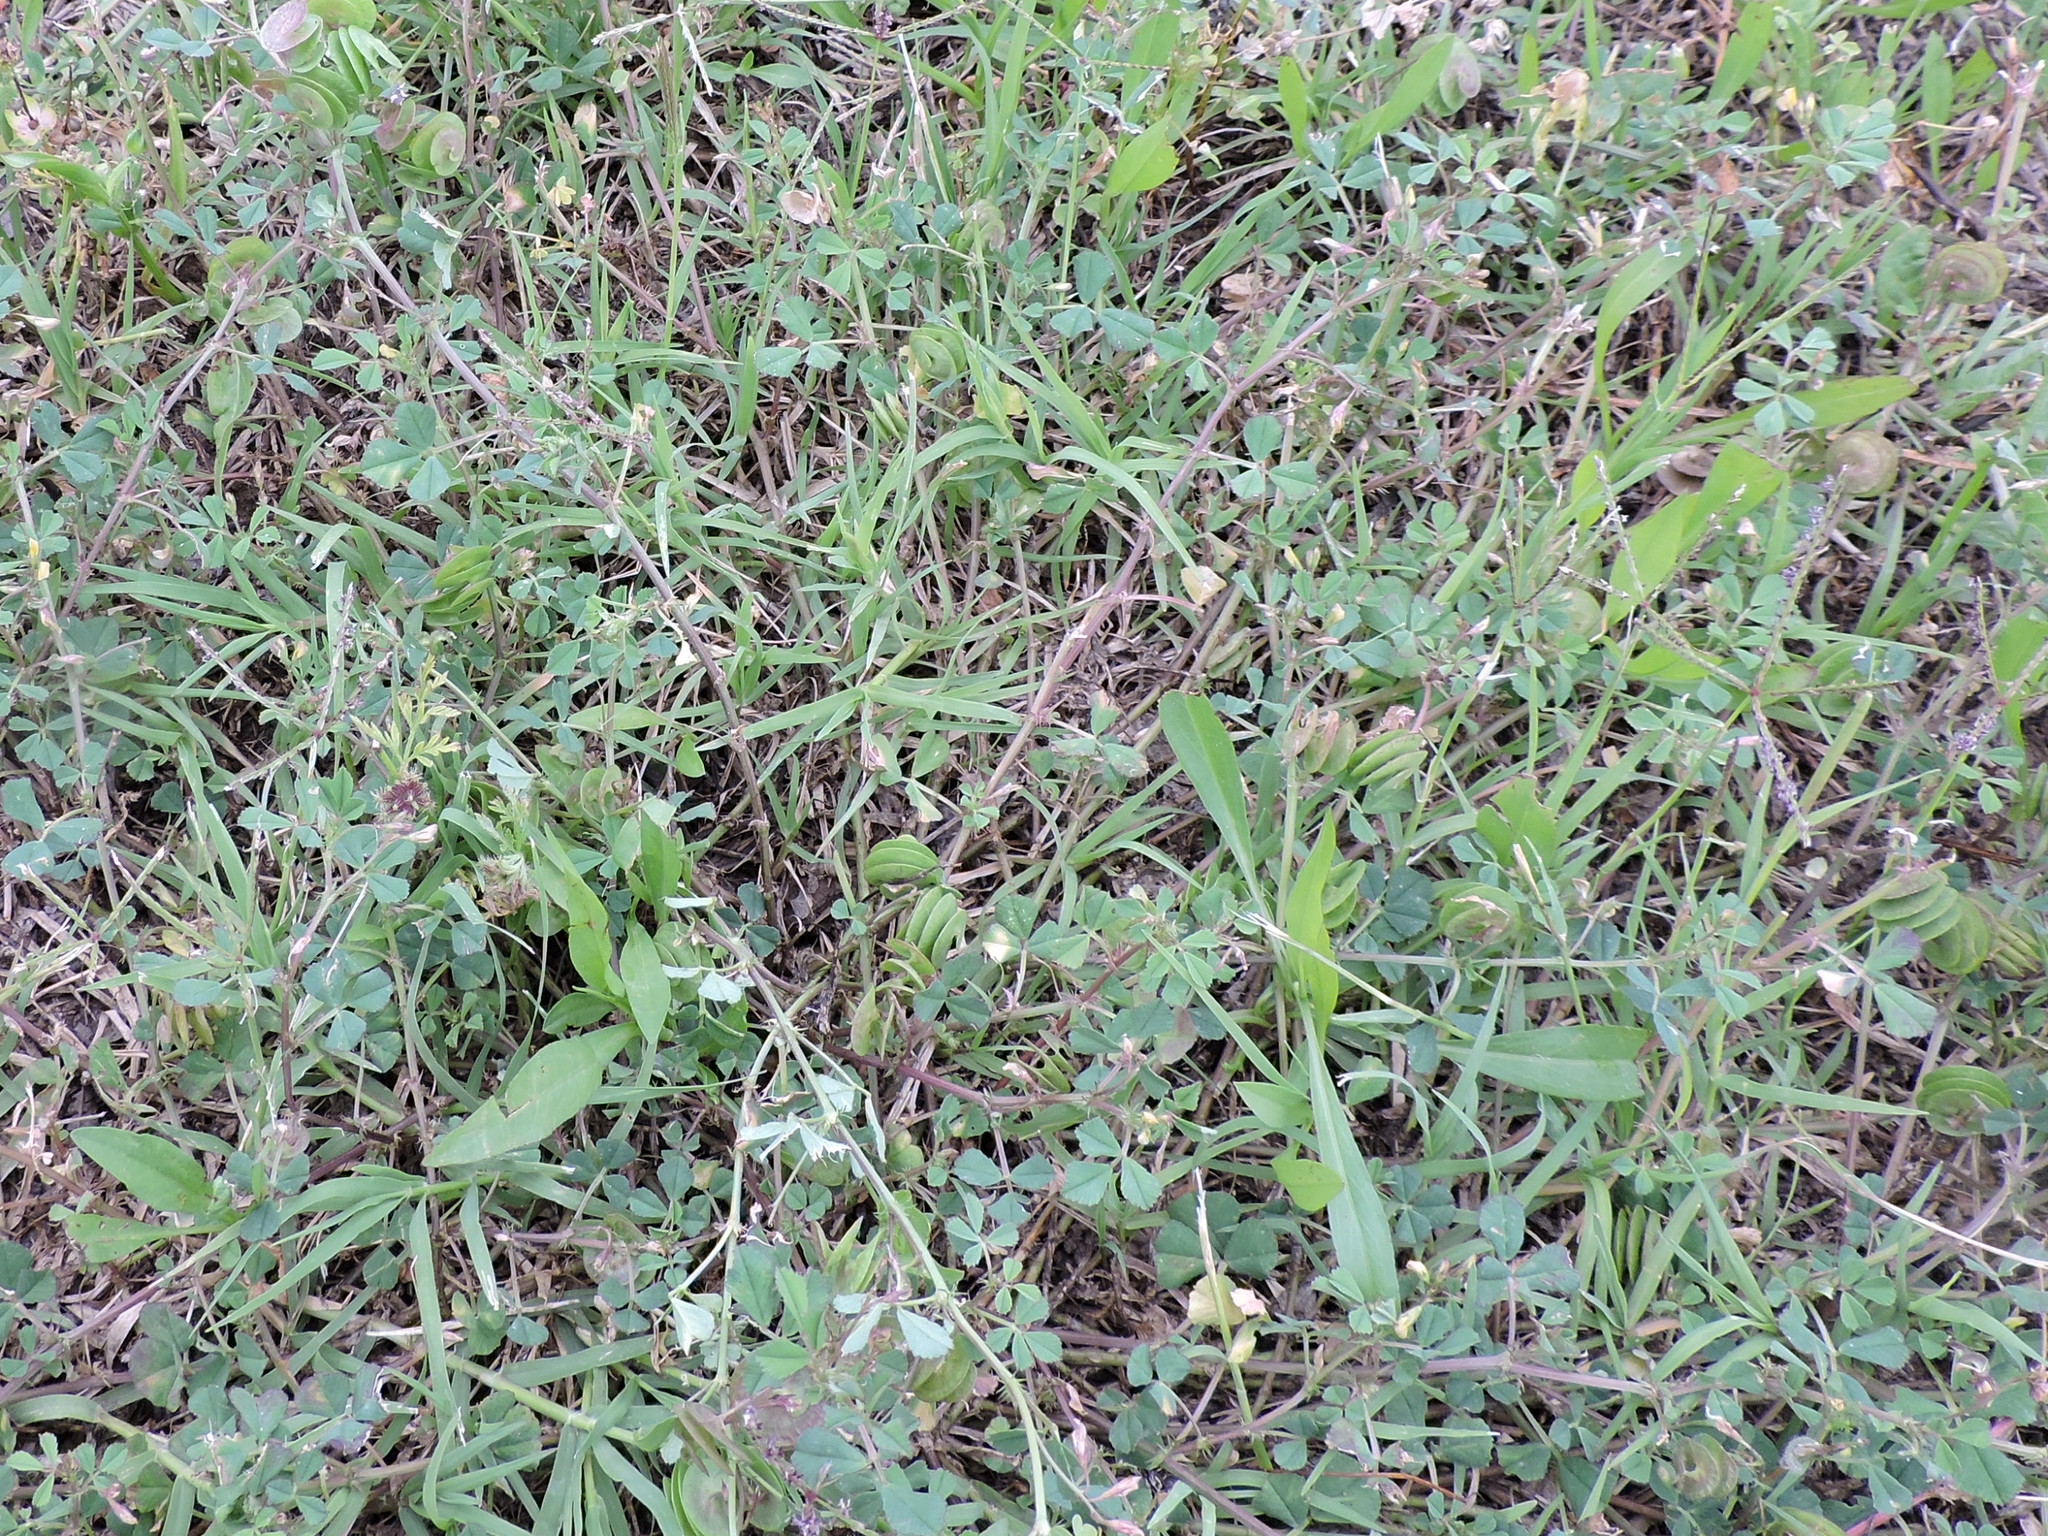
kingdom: Plantae
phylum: Tracheophyta
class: Magnoliopsida
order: Fabales
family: Fabaceae
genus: Medicago
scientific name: Medicago orbicularis
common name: Button medick
